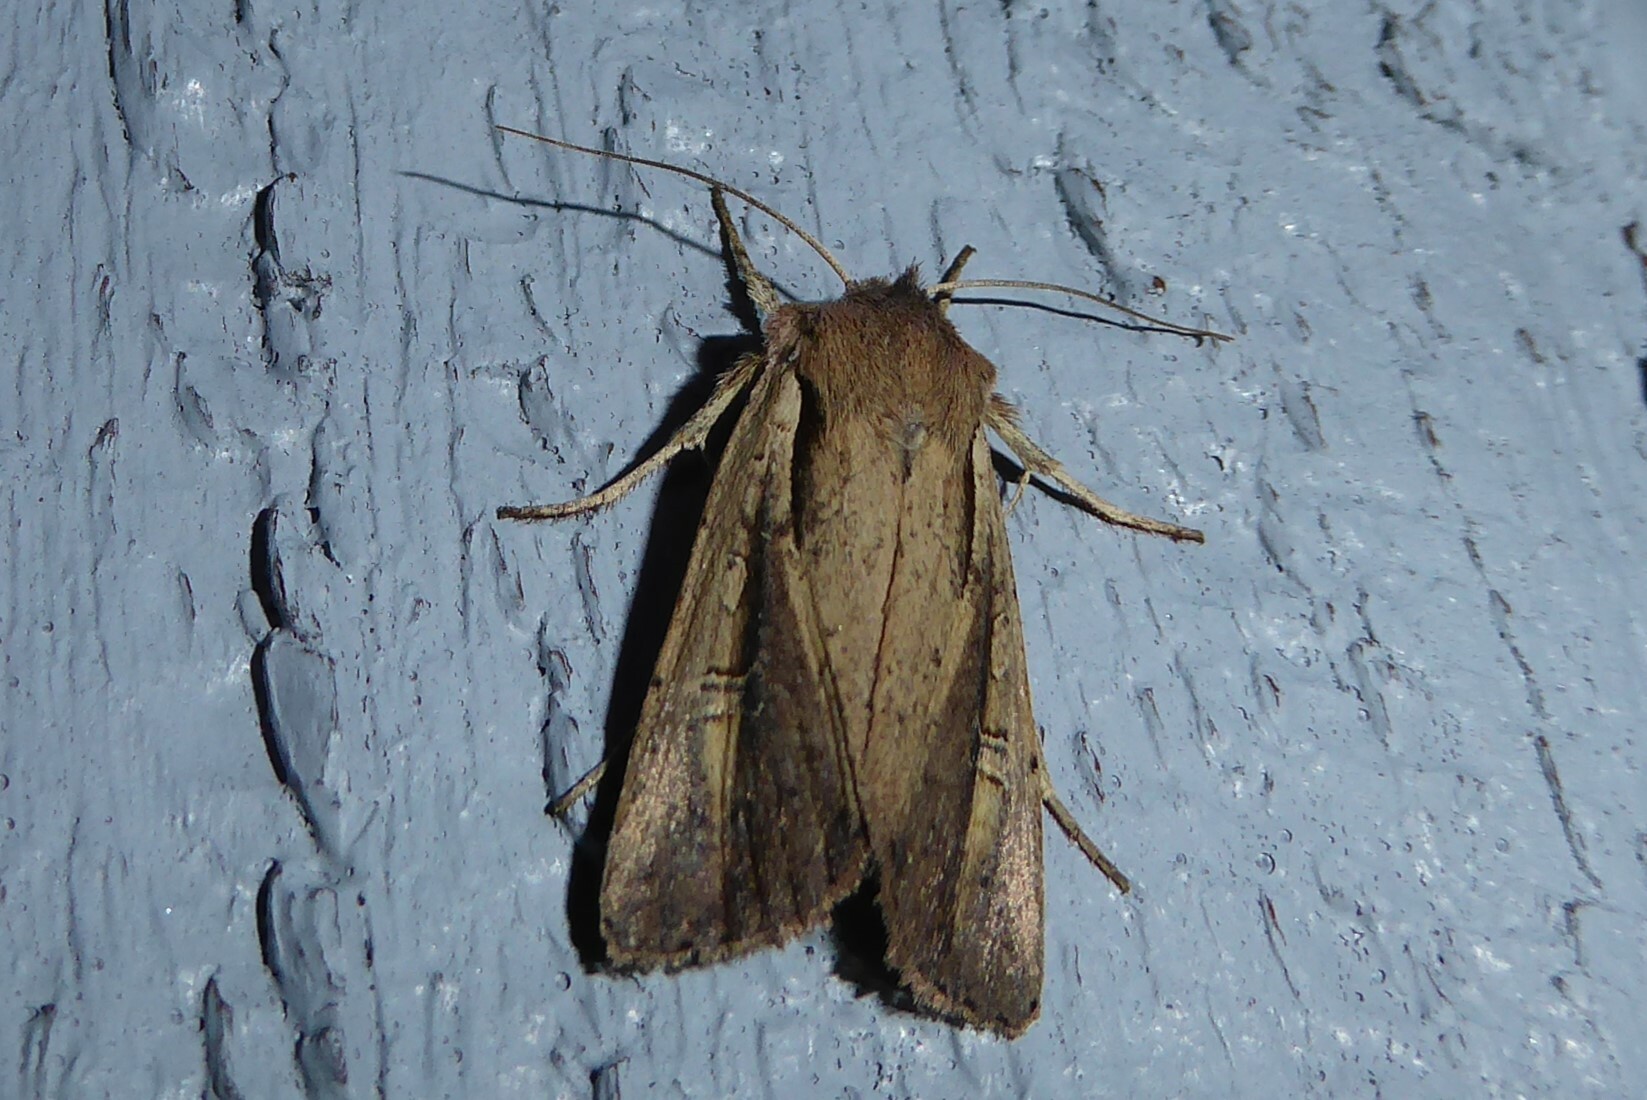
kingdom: Animalia
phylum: Arthropoda
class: Insecta
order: Lepidoptera
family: Noctuidae
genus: Ichneutica
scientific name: Ichneutica atristriga
